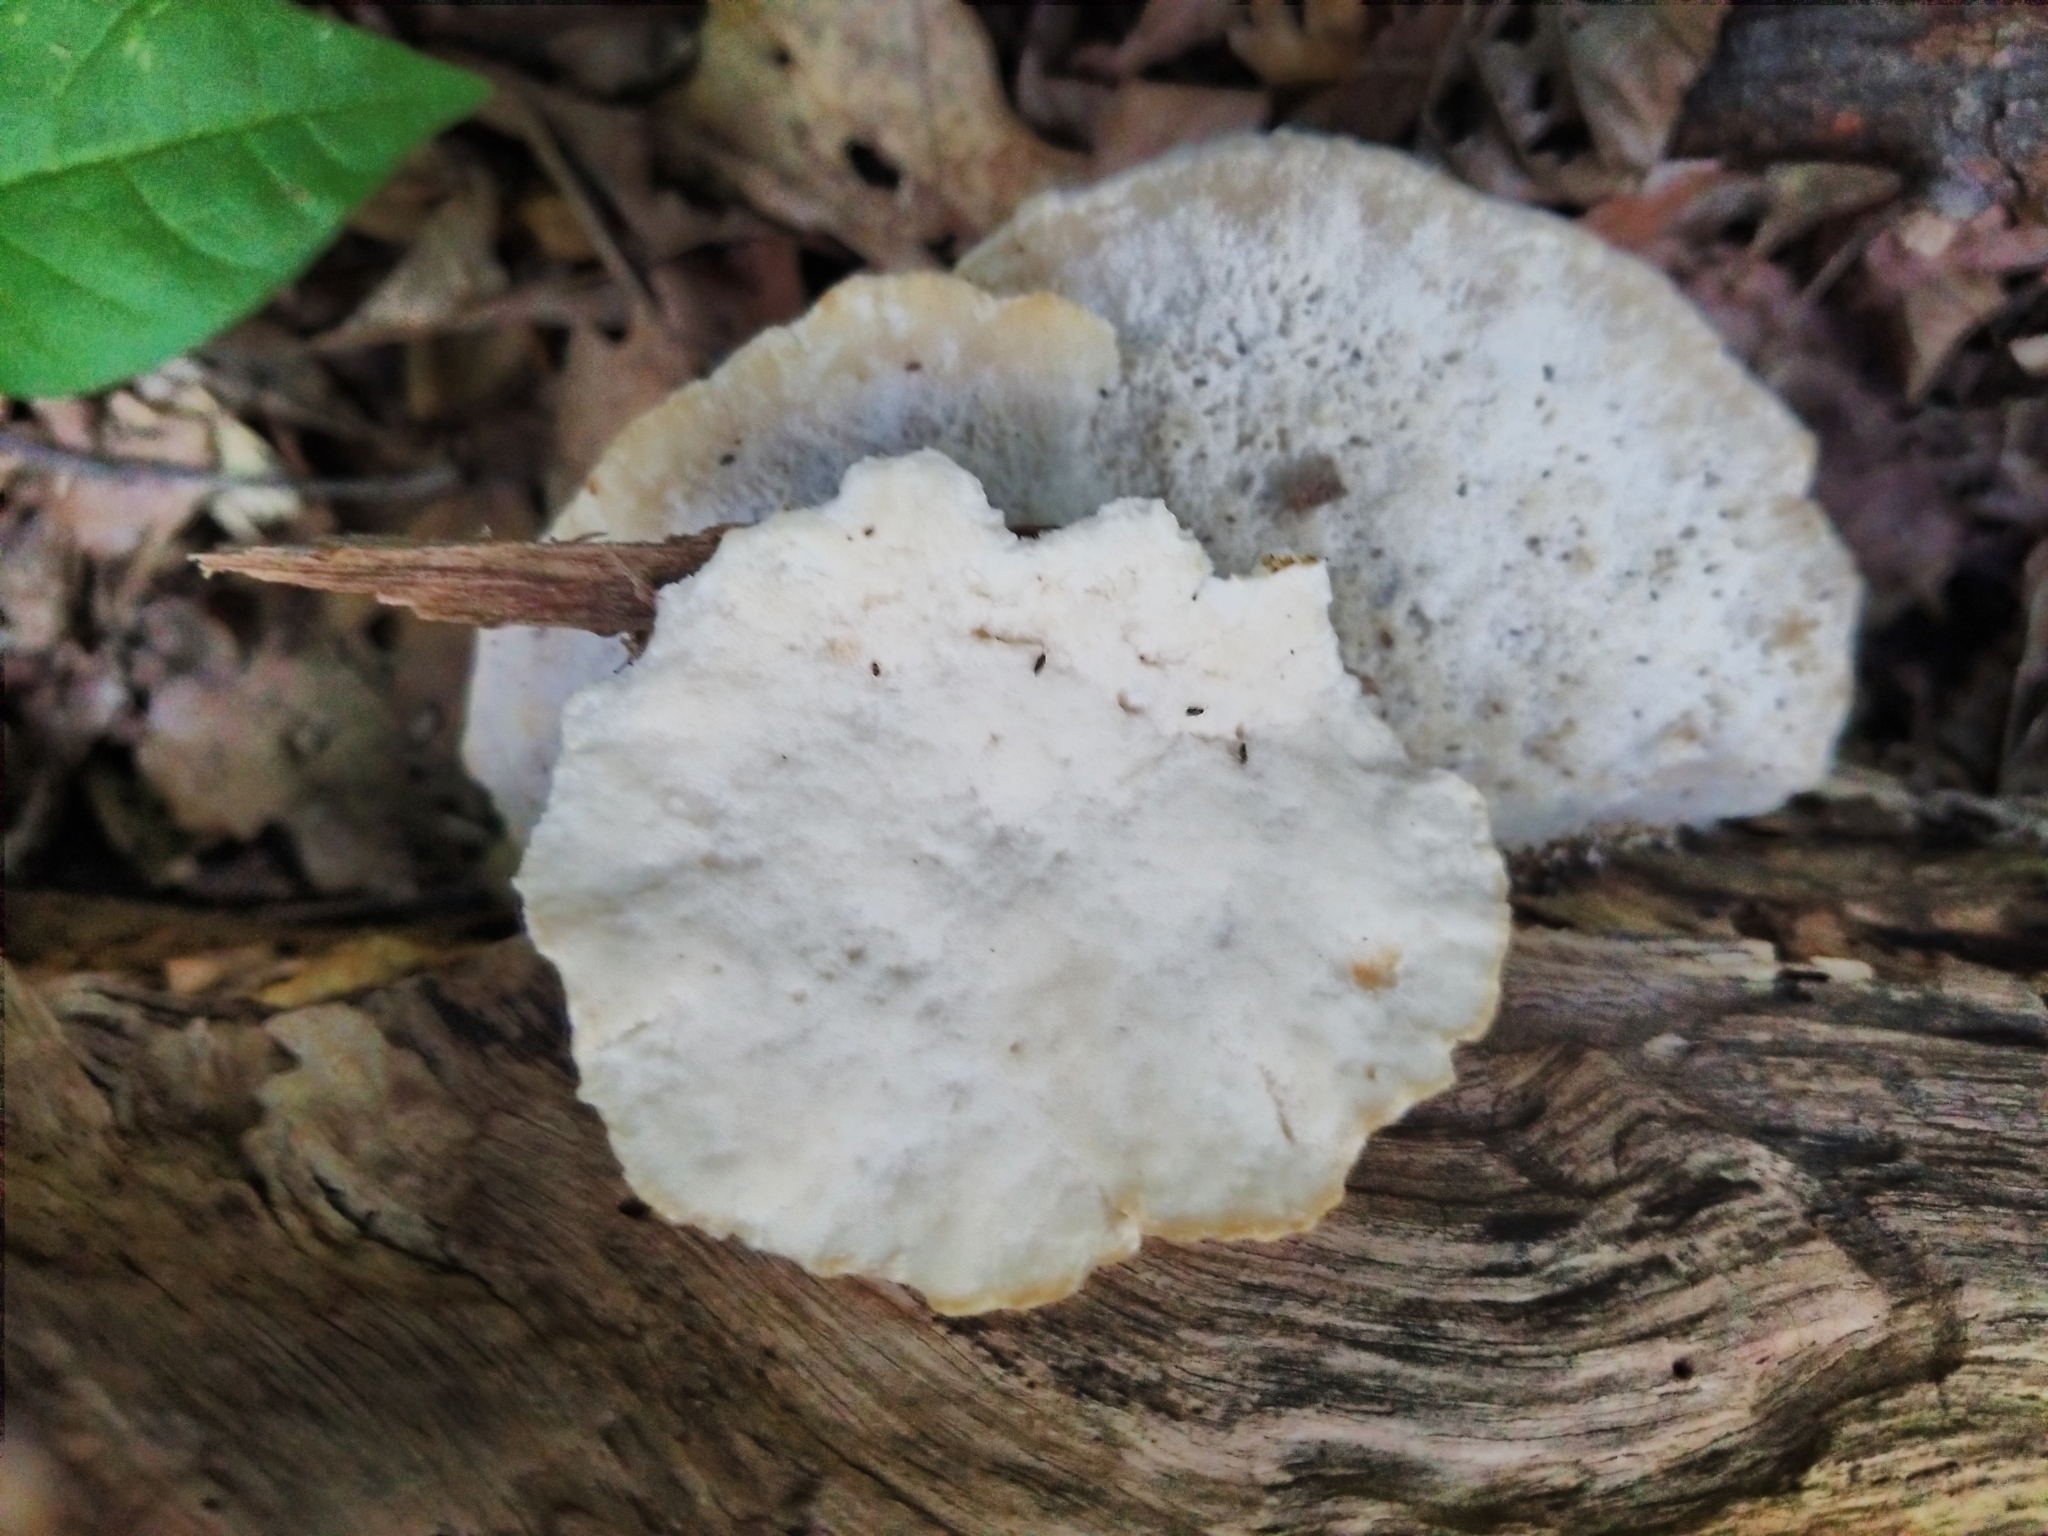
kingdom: Fungi
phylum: Basidiomycota
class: Agaricomycetes
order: Polyporales
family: Incrustoporiaceae
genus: Tyromyces
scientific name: Tyromyces chioneus
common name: White cheese polypore
